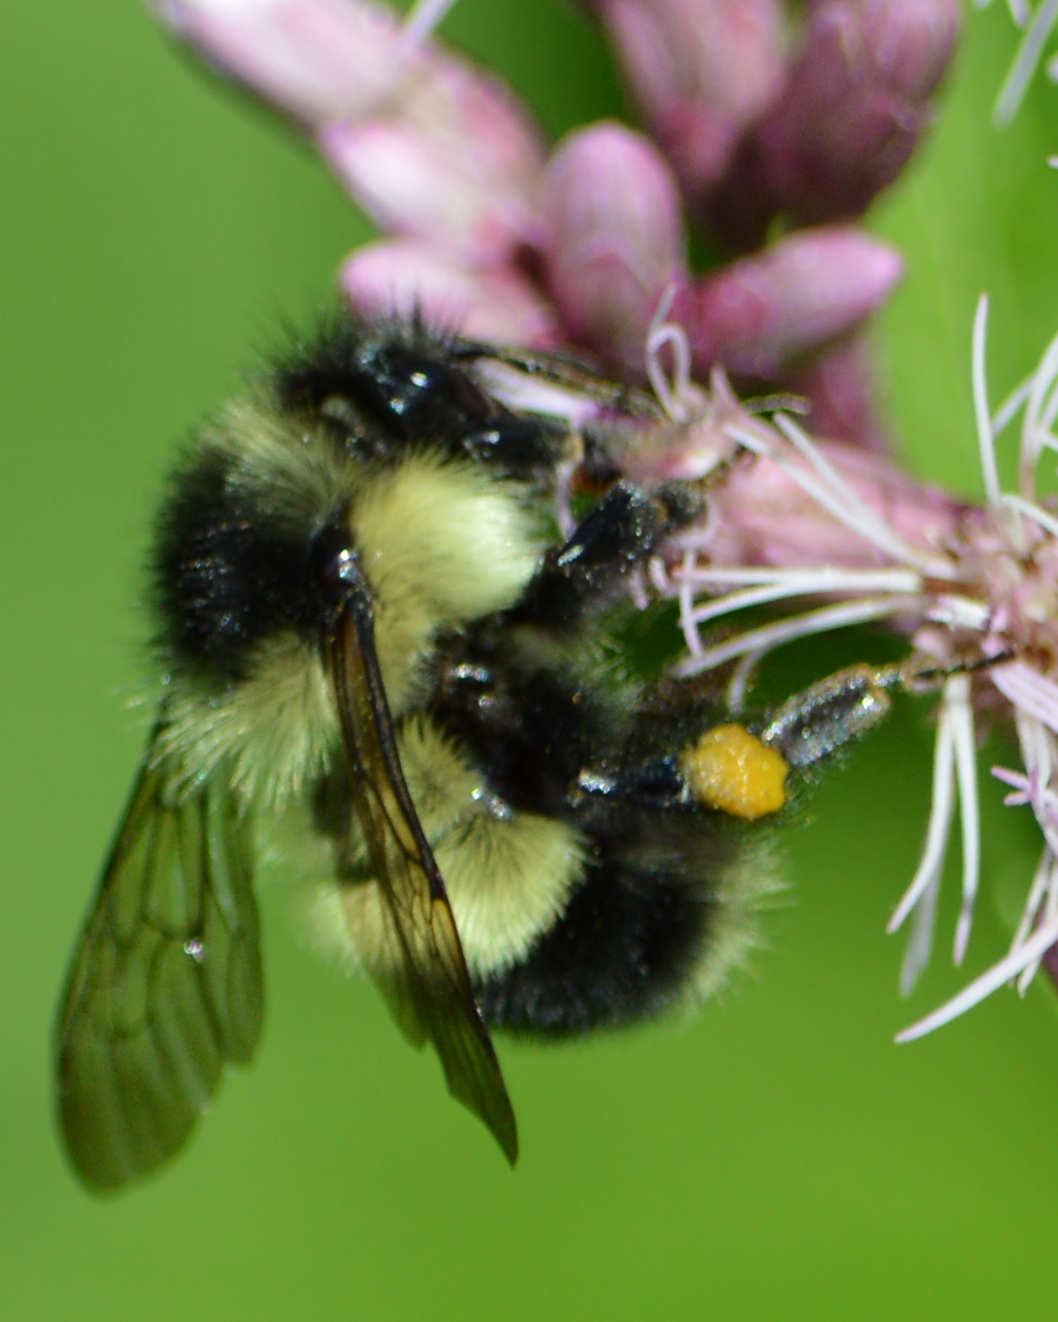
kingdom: Animalia
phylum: Arthropoda
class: Insecta
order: Hymenoptera
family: Apidae
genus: Bombus
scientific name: Bombus vagans
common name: Half-black bumble bee
